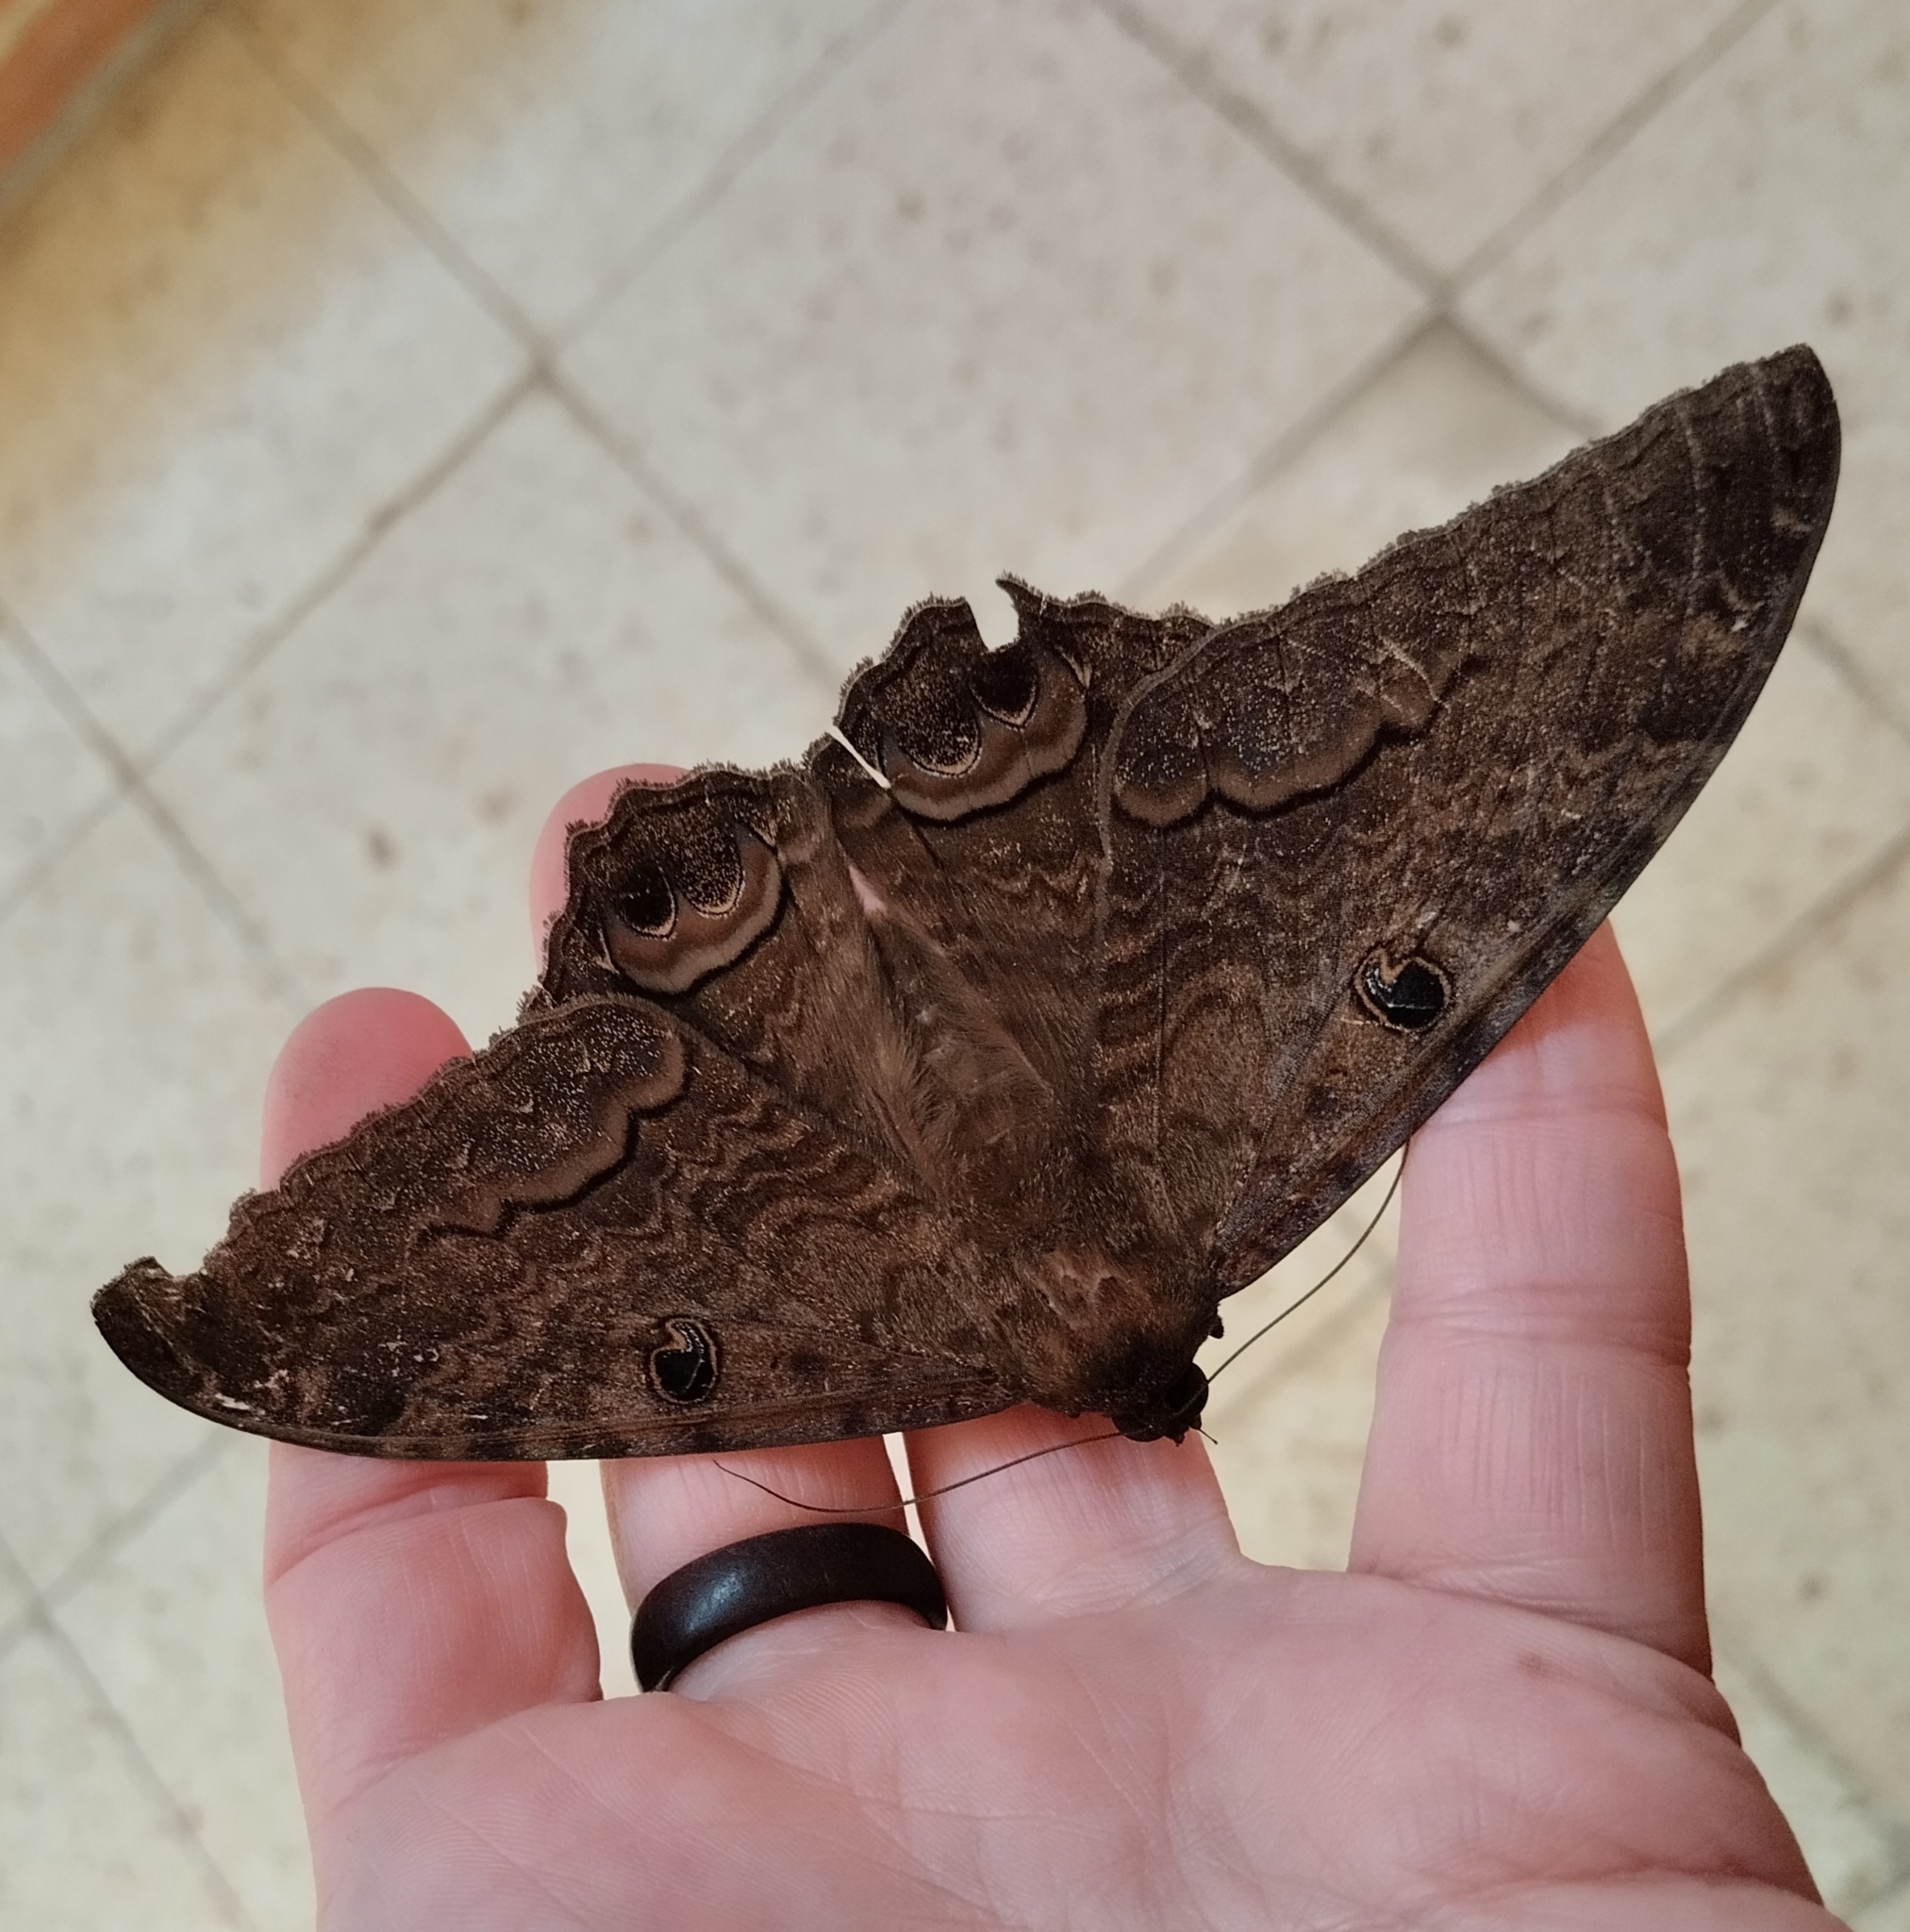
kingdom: Animalia
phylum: Arthropoda
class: Insecta
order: Lepidoptera
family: Erebidae
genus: Ascalapha
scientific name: Ascalapha odorata
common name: Black witch
